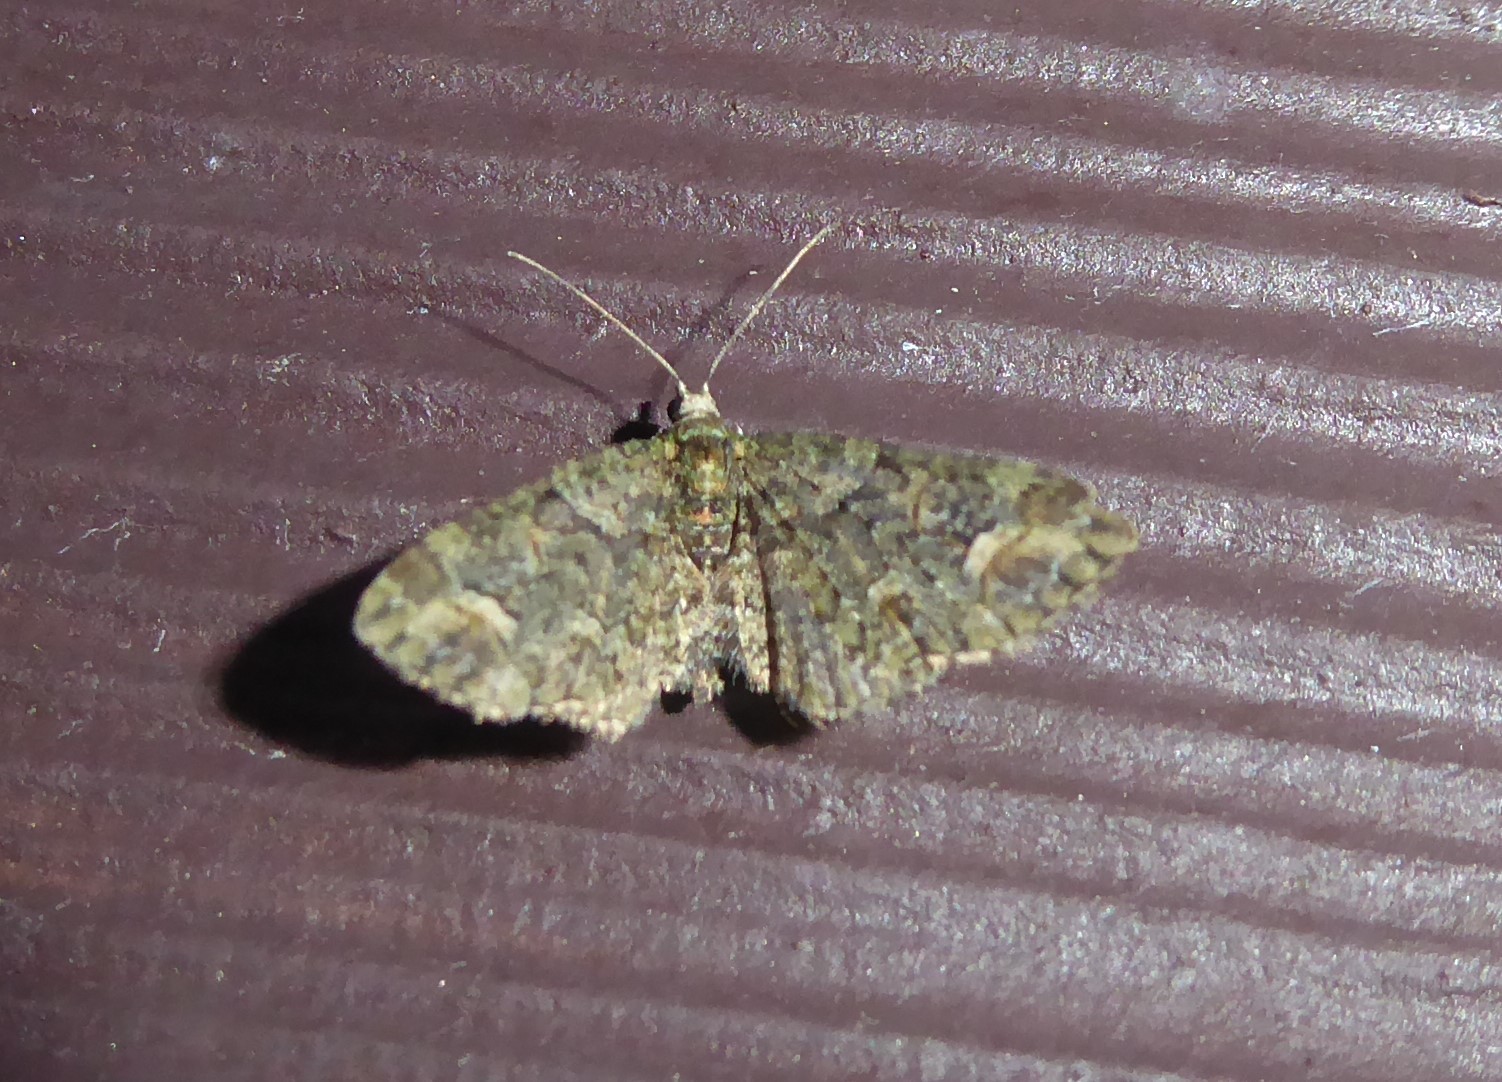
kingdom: Animalia
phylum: Arthropoda
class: Insecta
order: Lepidoptera
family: Geometridae
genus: Idaea
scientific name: Idaea mutanda
